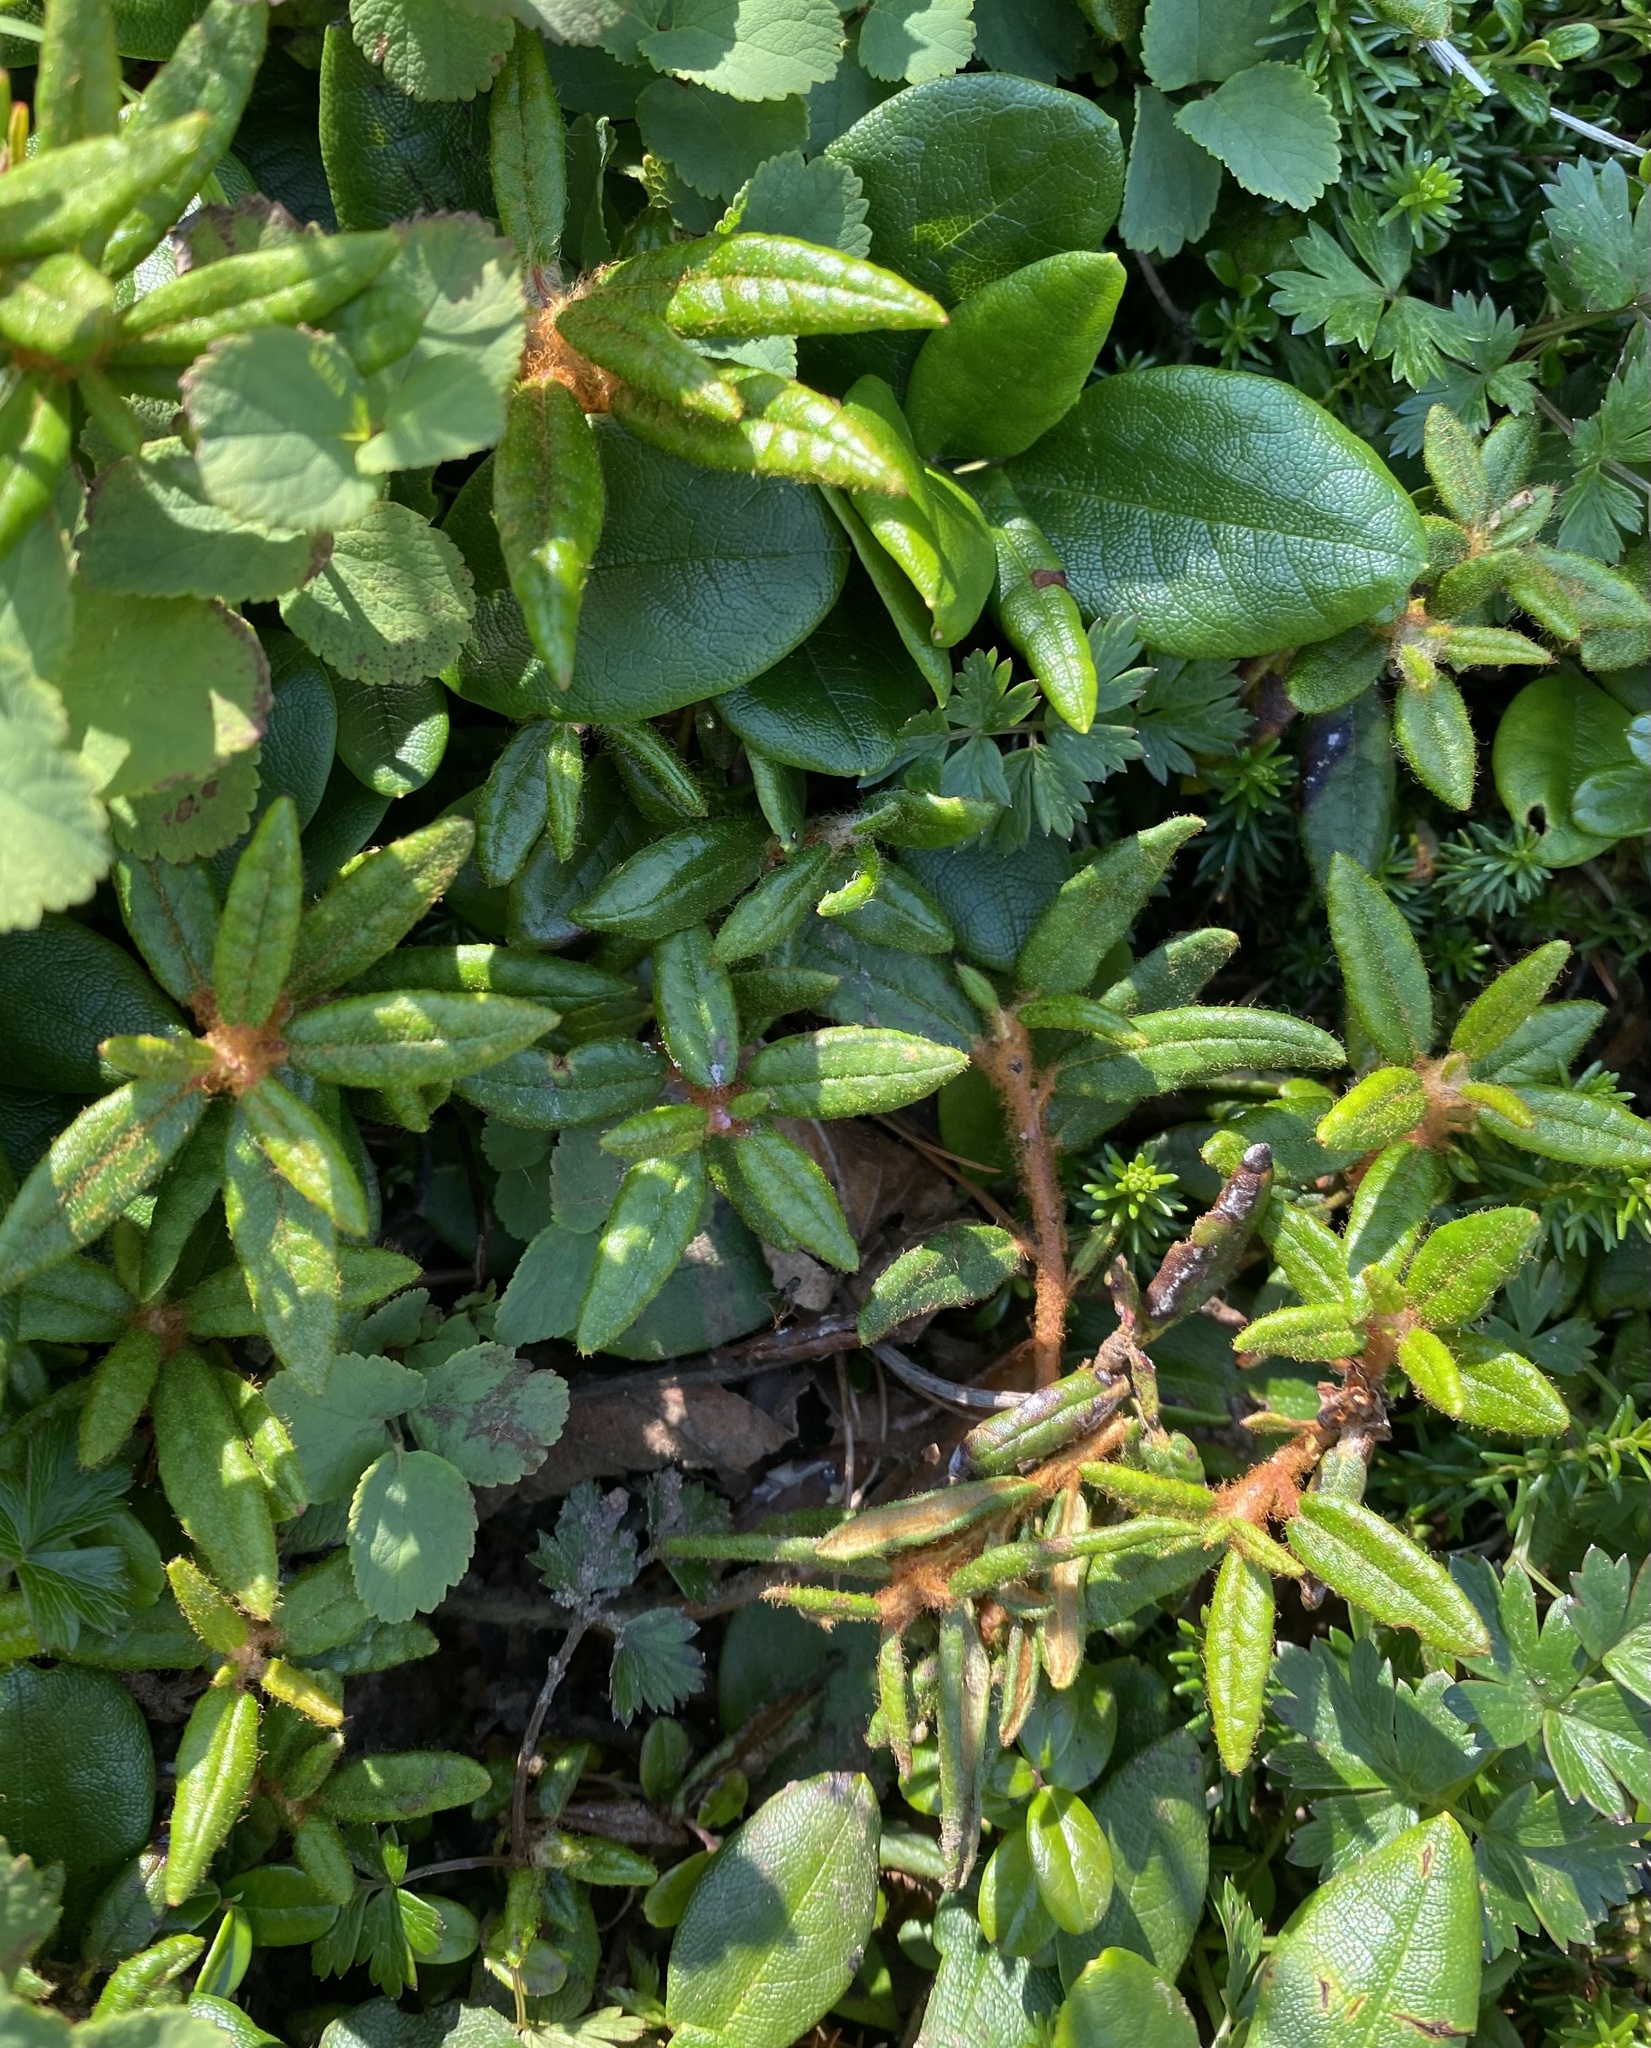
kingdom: Plantae
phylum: Tracheophyta
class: Magnoliopsida
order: Ericales
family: Ericaceae
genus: Rhododendron
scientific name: Rhododendron tomentosum
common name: Marsh labrador tea
